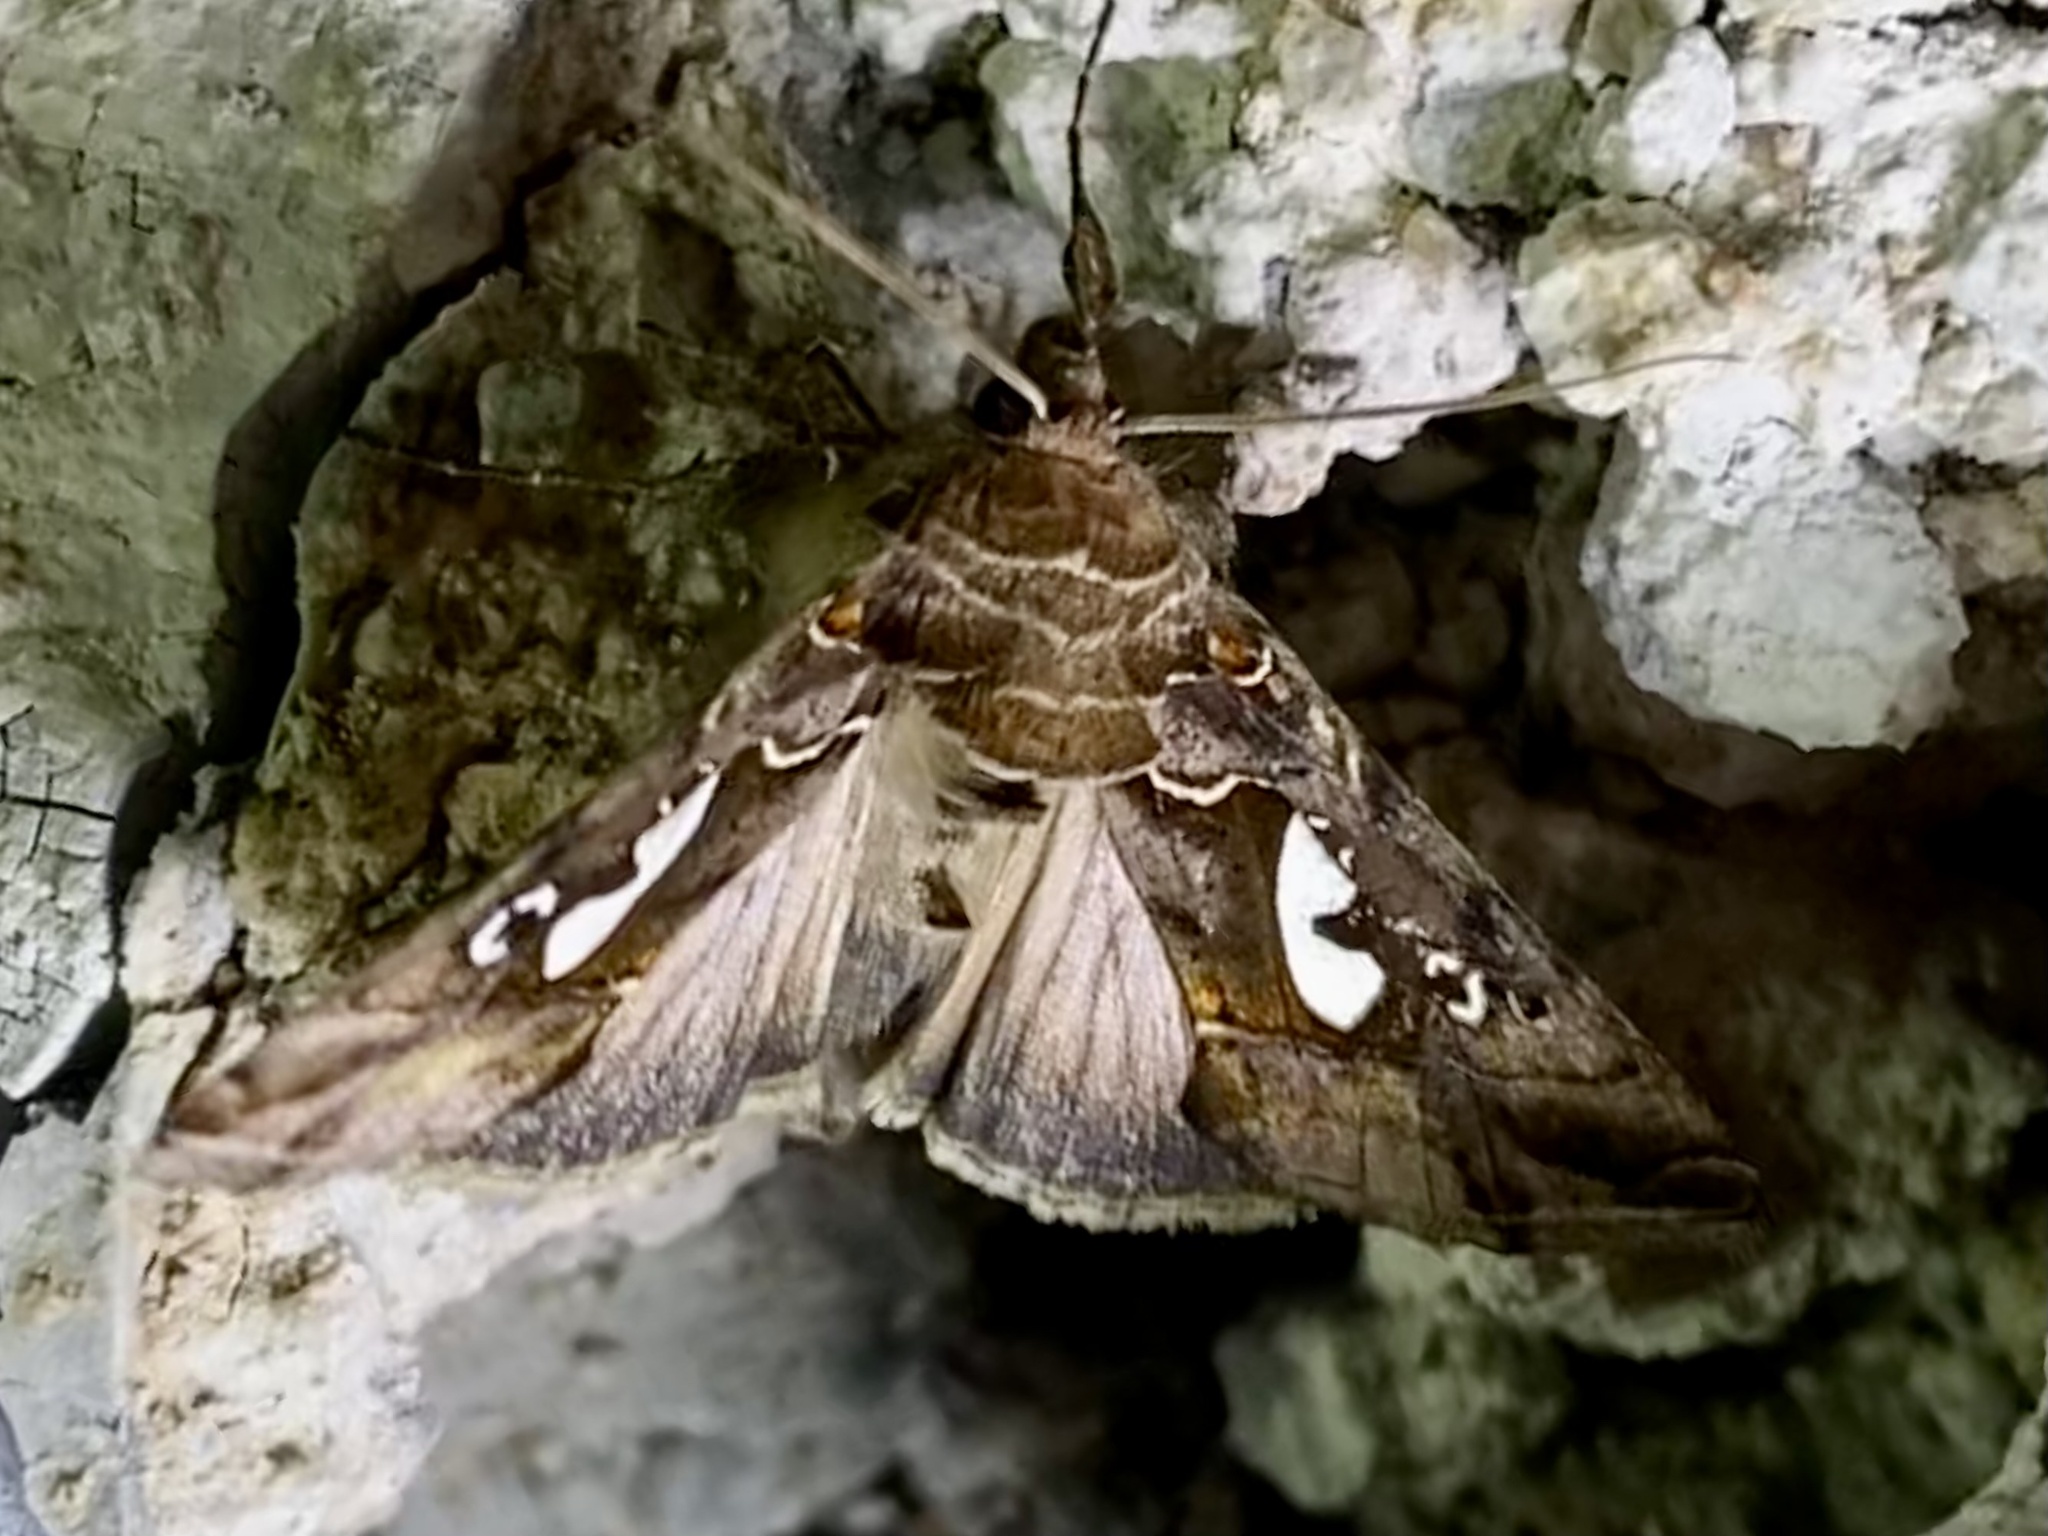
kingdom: Animalia
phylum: Arthropoda
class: Insecta
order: Lepidoptera
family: Noctuidae
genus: Megalographa
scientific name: Megalographa biloba
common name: Cutworm
